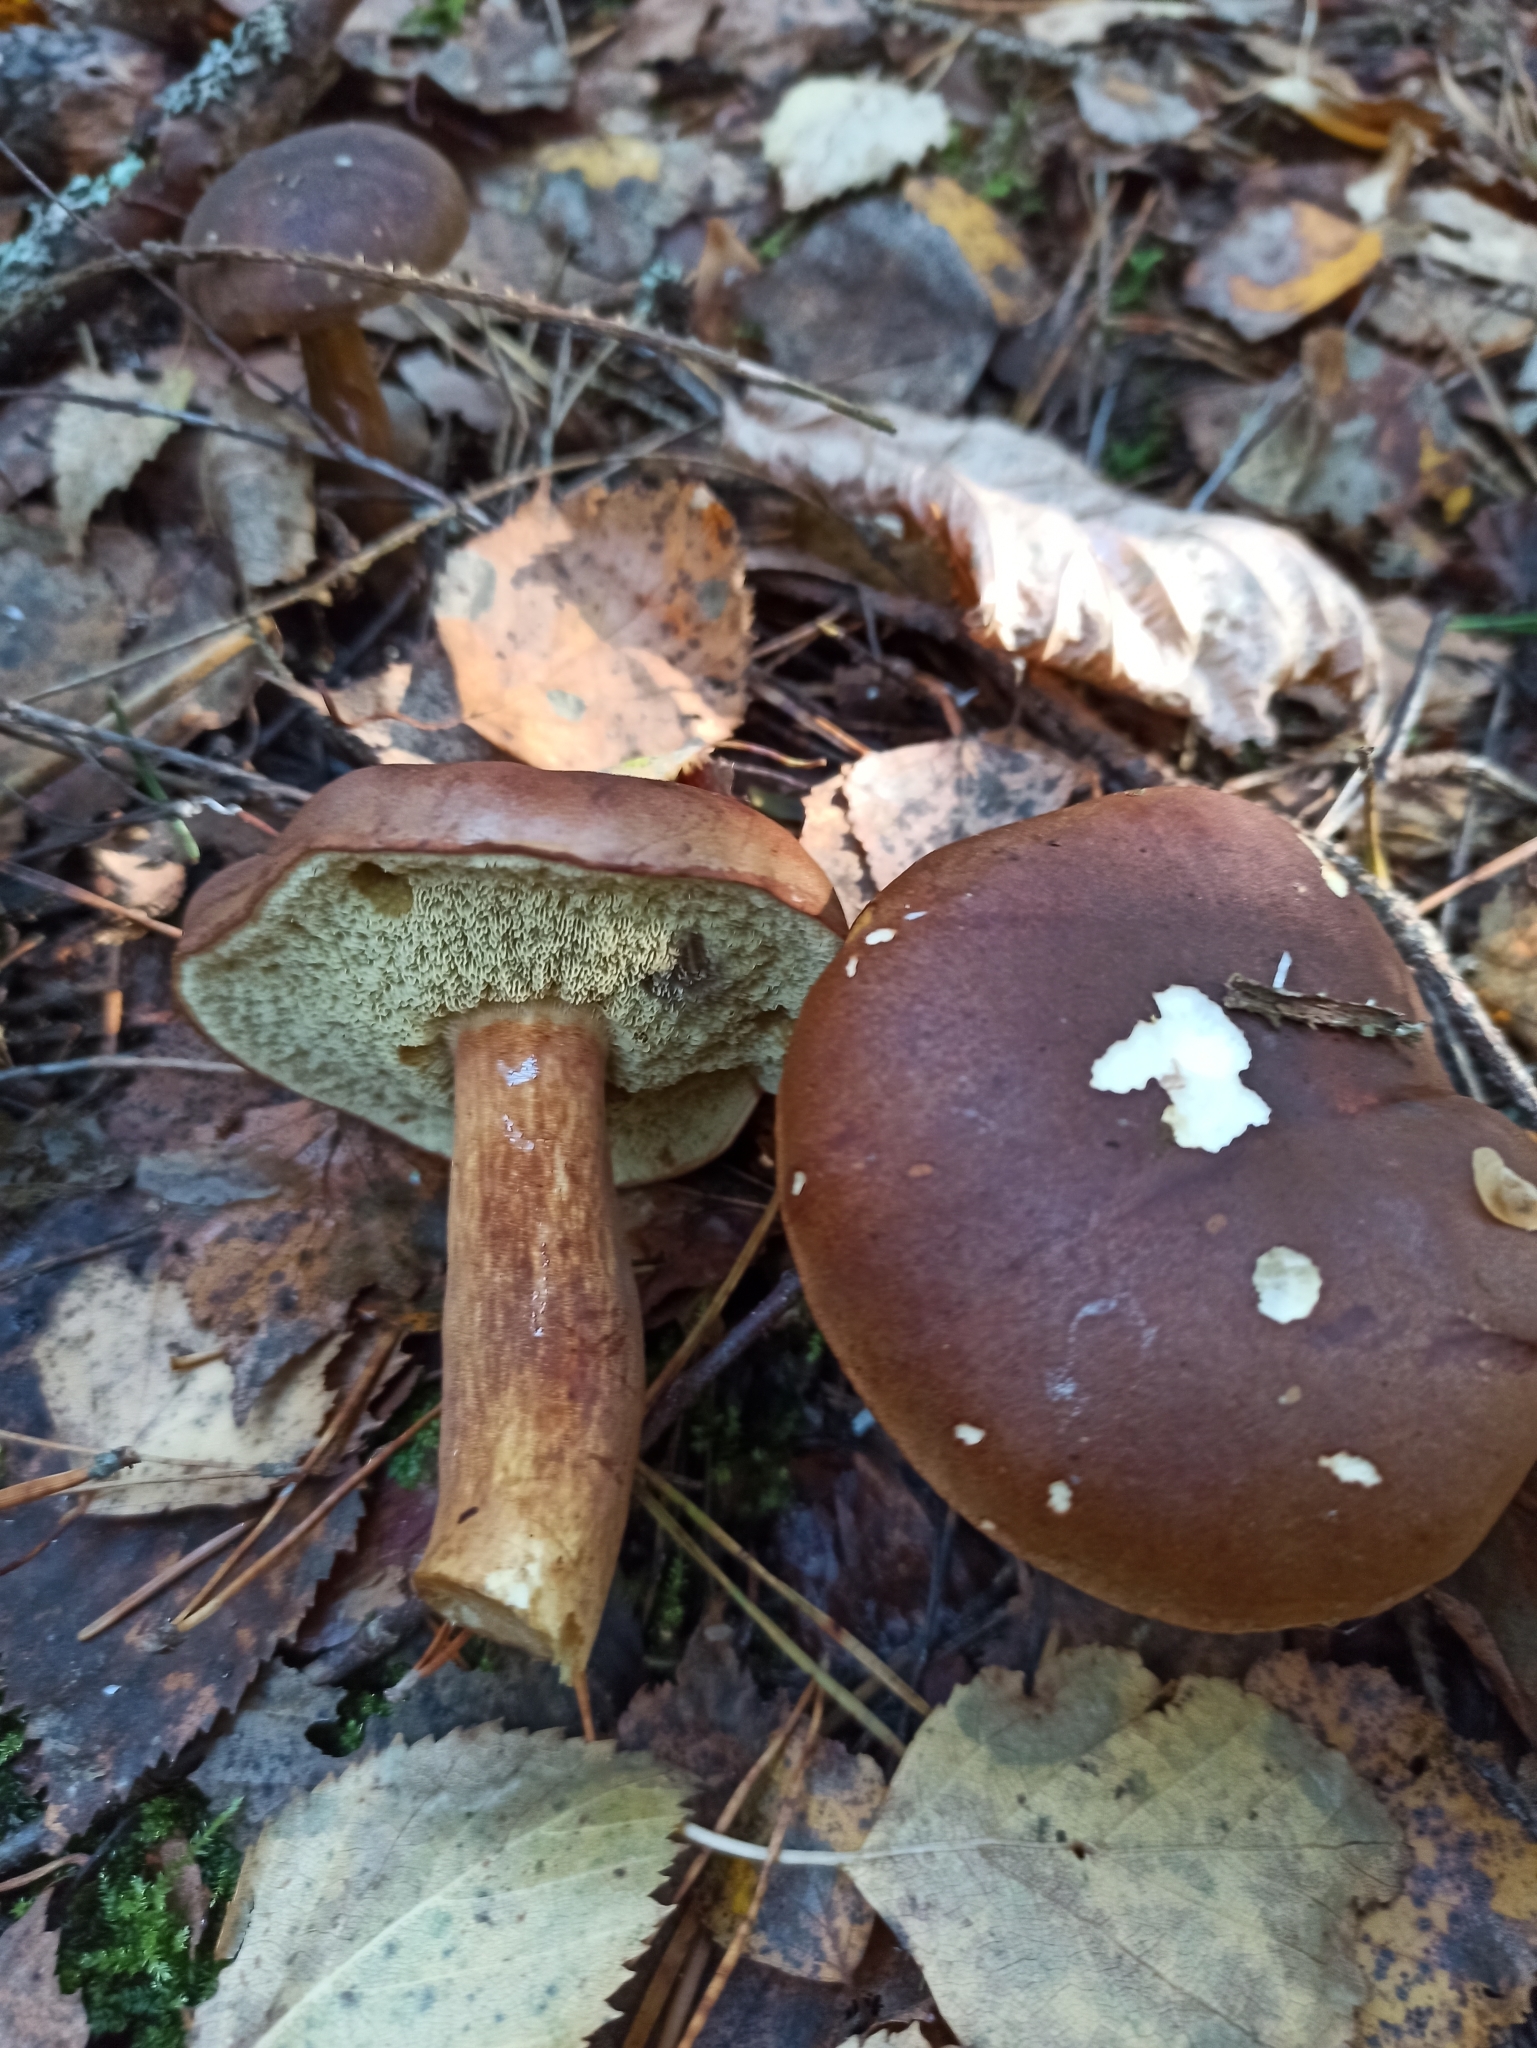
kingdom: Fungi
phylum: Basidiomycota
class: Agaricomycetes
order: Boletales
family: Boletaceae
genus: Imleria
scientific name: Imleria badia
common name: Bay bolete
